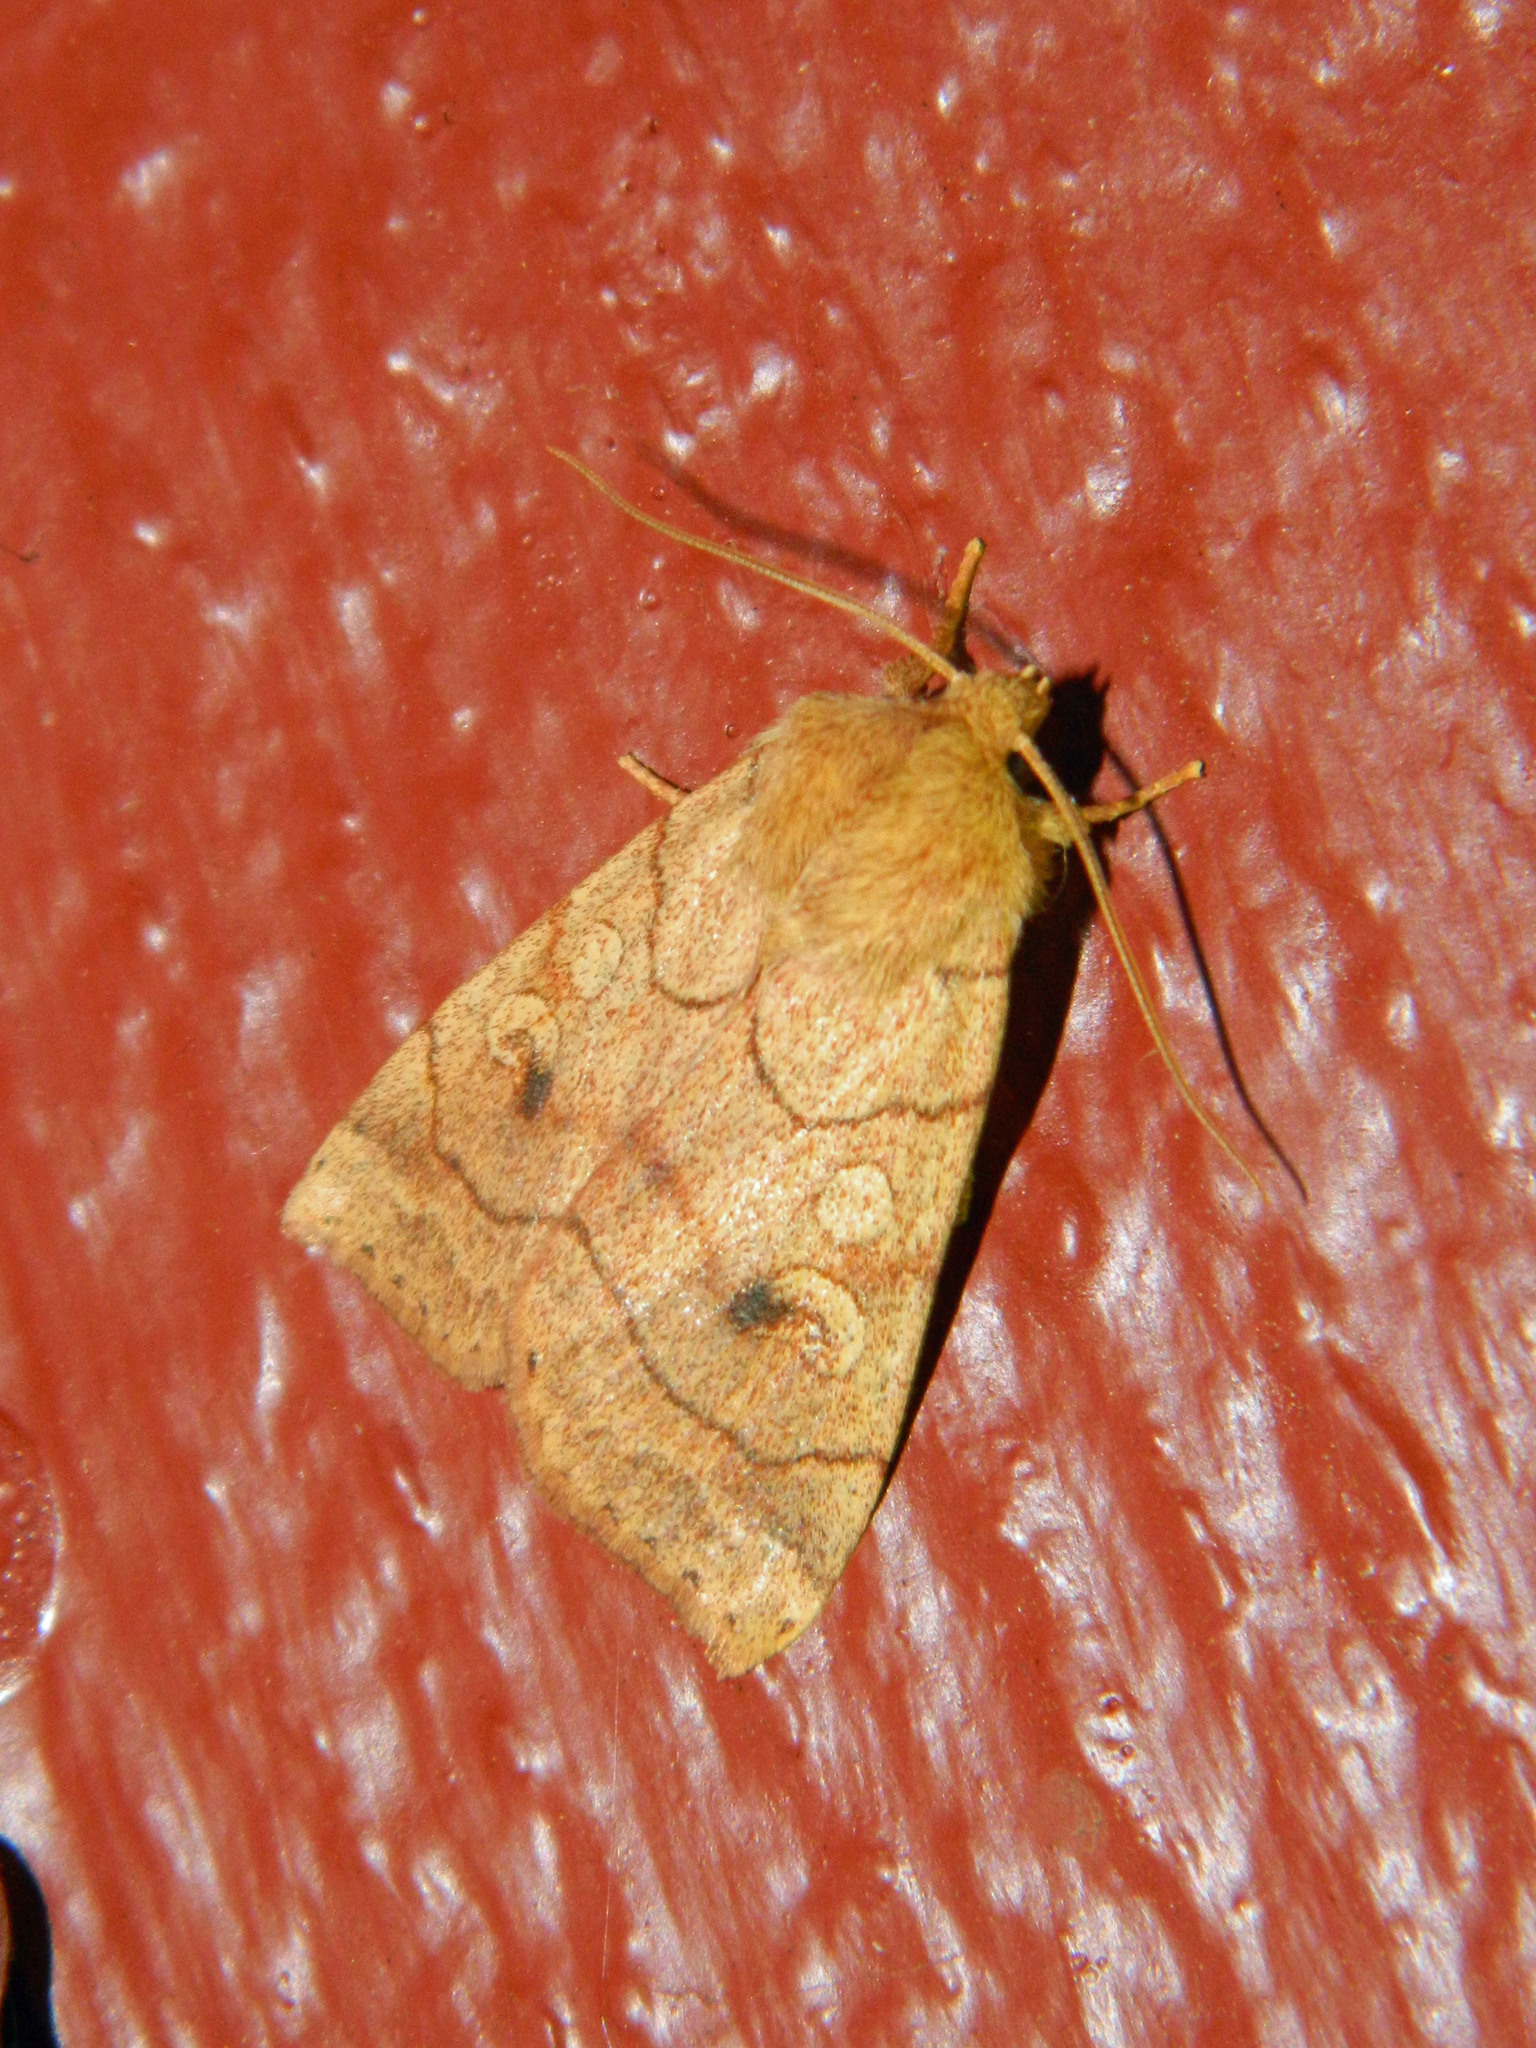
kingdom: Animalia
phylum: Arthropoda
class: Insecta
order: Lepidoptera
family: Noctuidae
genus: Enargia
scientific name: Enargia infumata
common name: Smoked sallow
